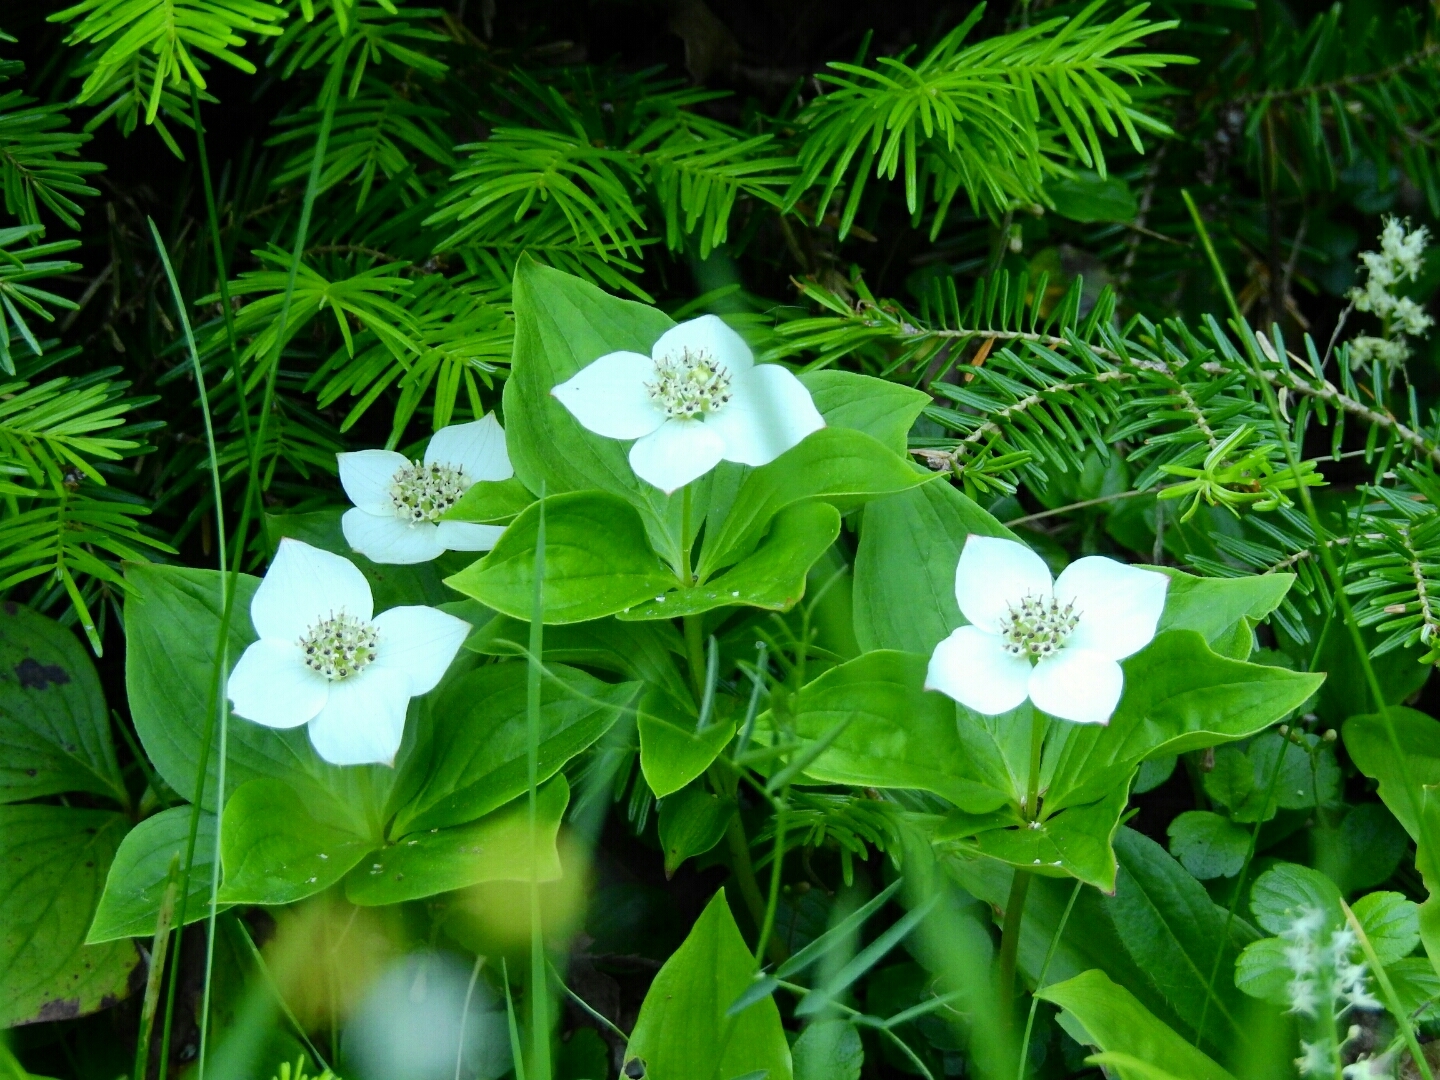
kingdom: Plantae
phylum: Tracheophyta
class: Magnoliopsida
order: Cornales
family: Cornaceae
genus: Cornus
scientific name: Cornus canadensis
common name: Creeping dogwood
